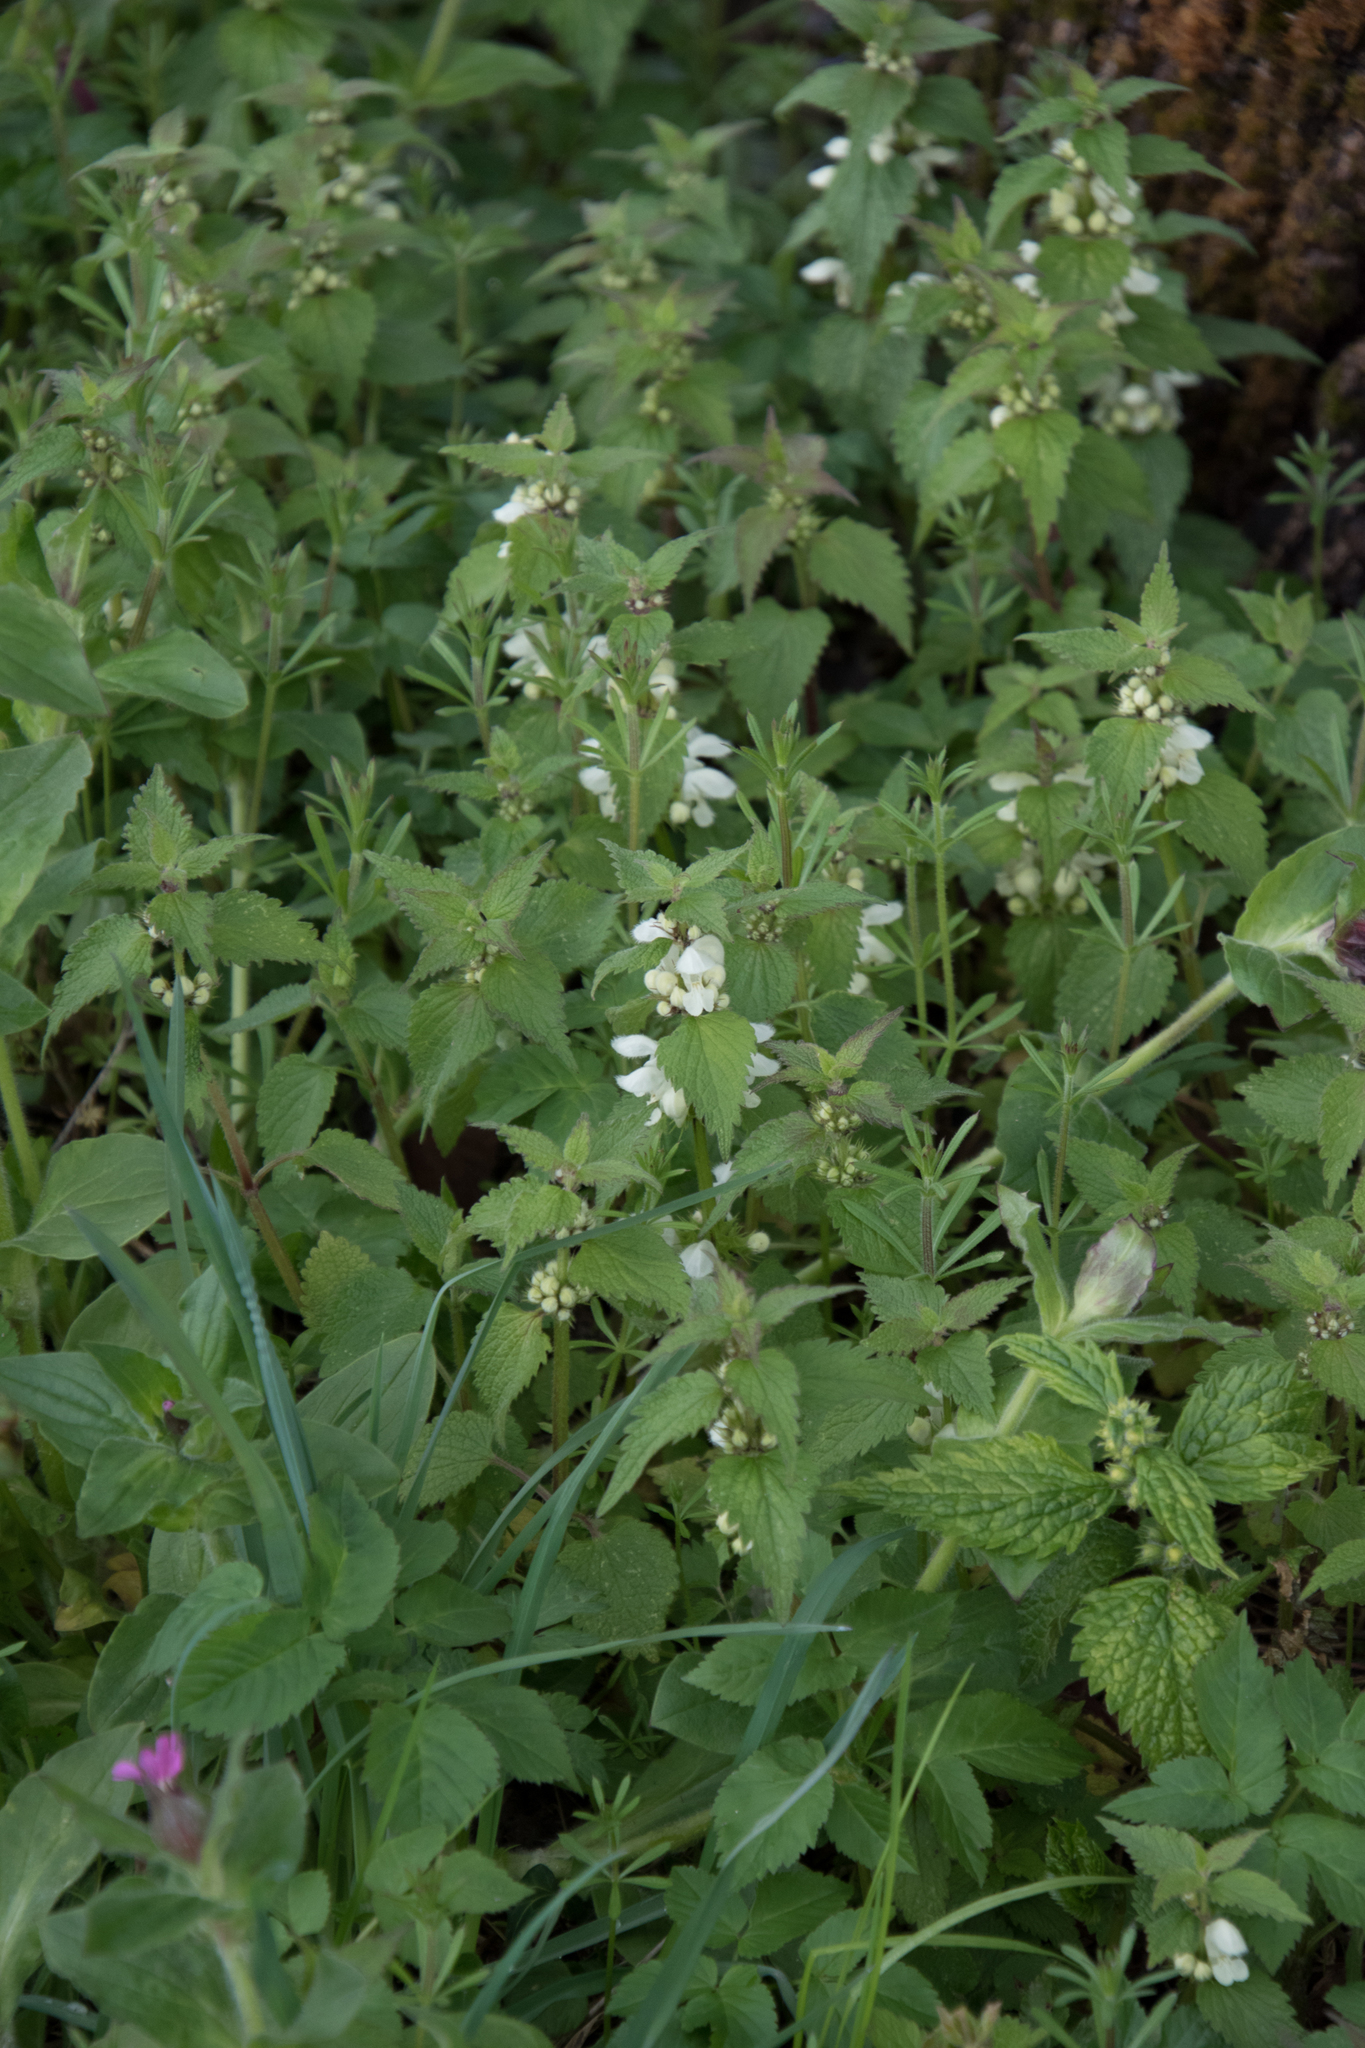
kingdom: Plantae
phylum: Tracheophyta
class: Magnoliopsida
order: Lamiales
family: Lamiaceae
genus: Lamium
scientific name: Lamium album
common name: White dead-nettle
